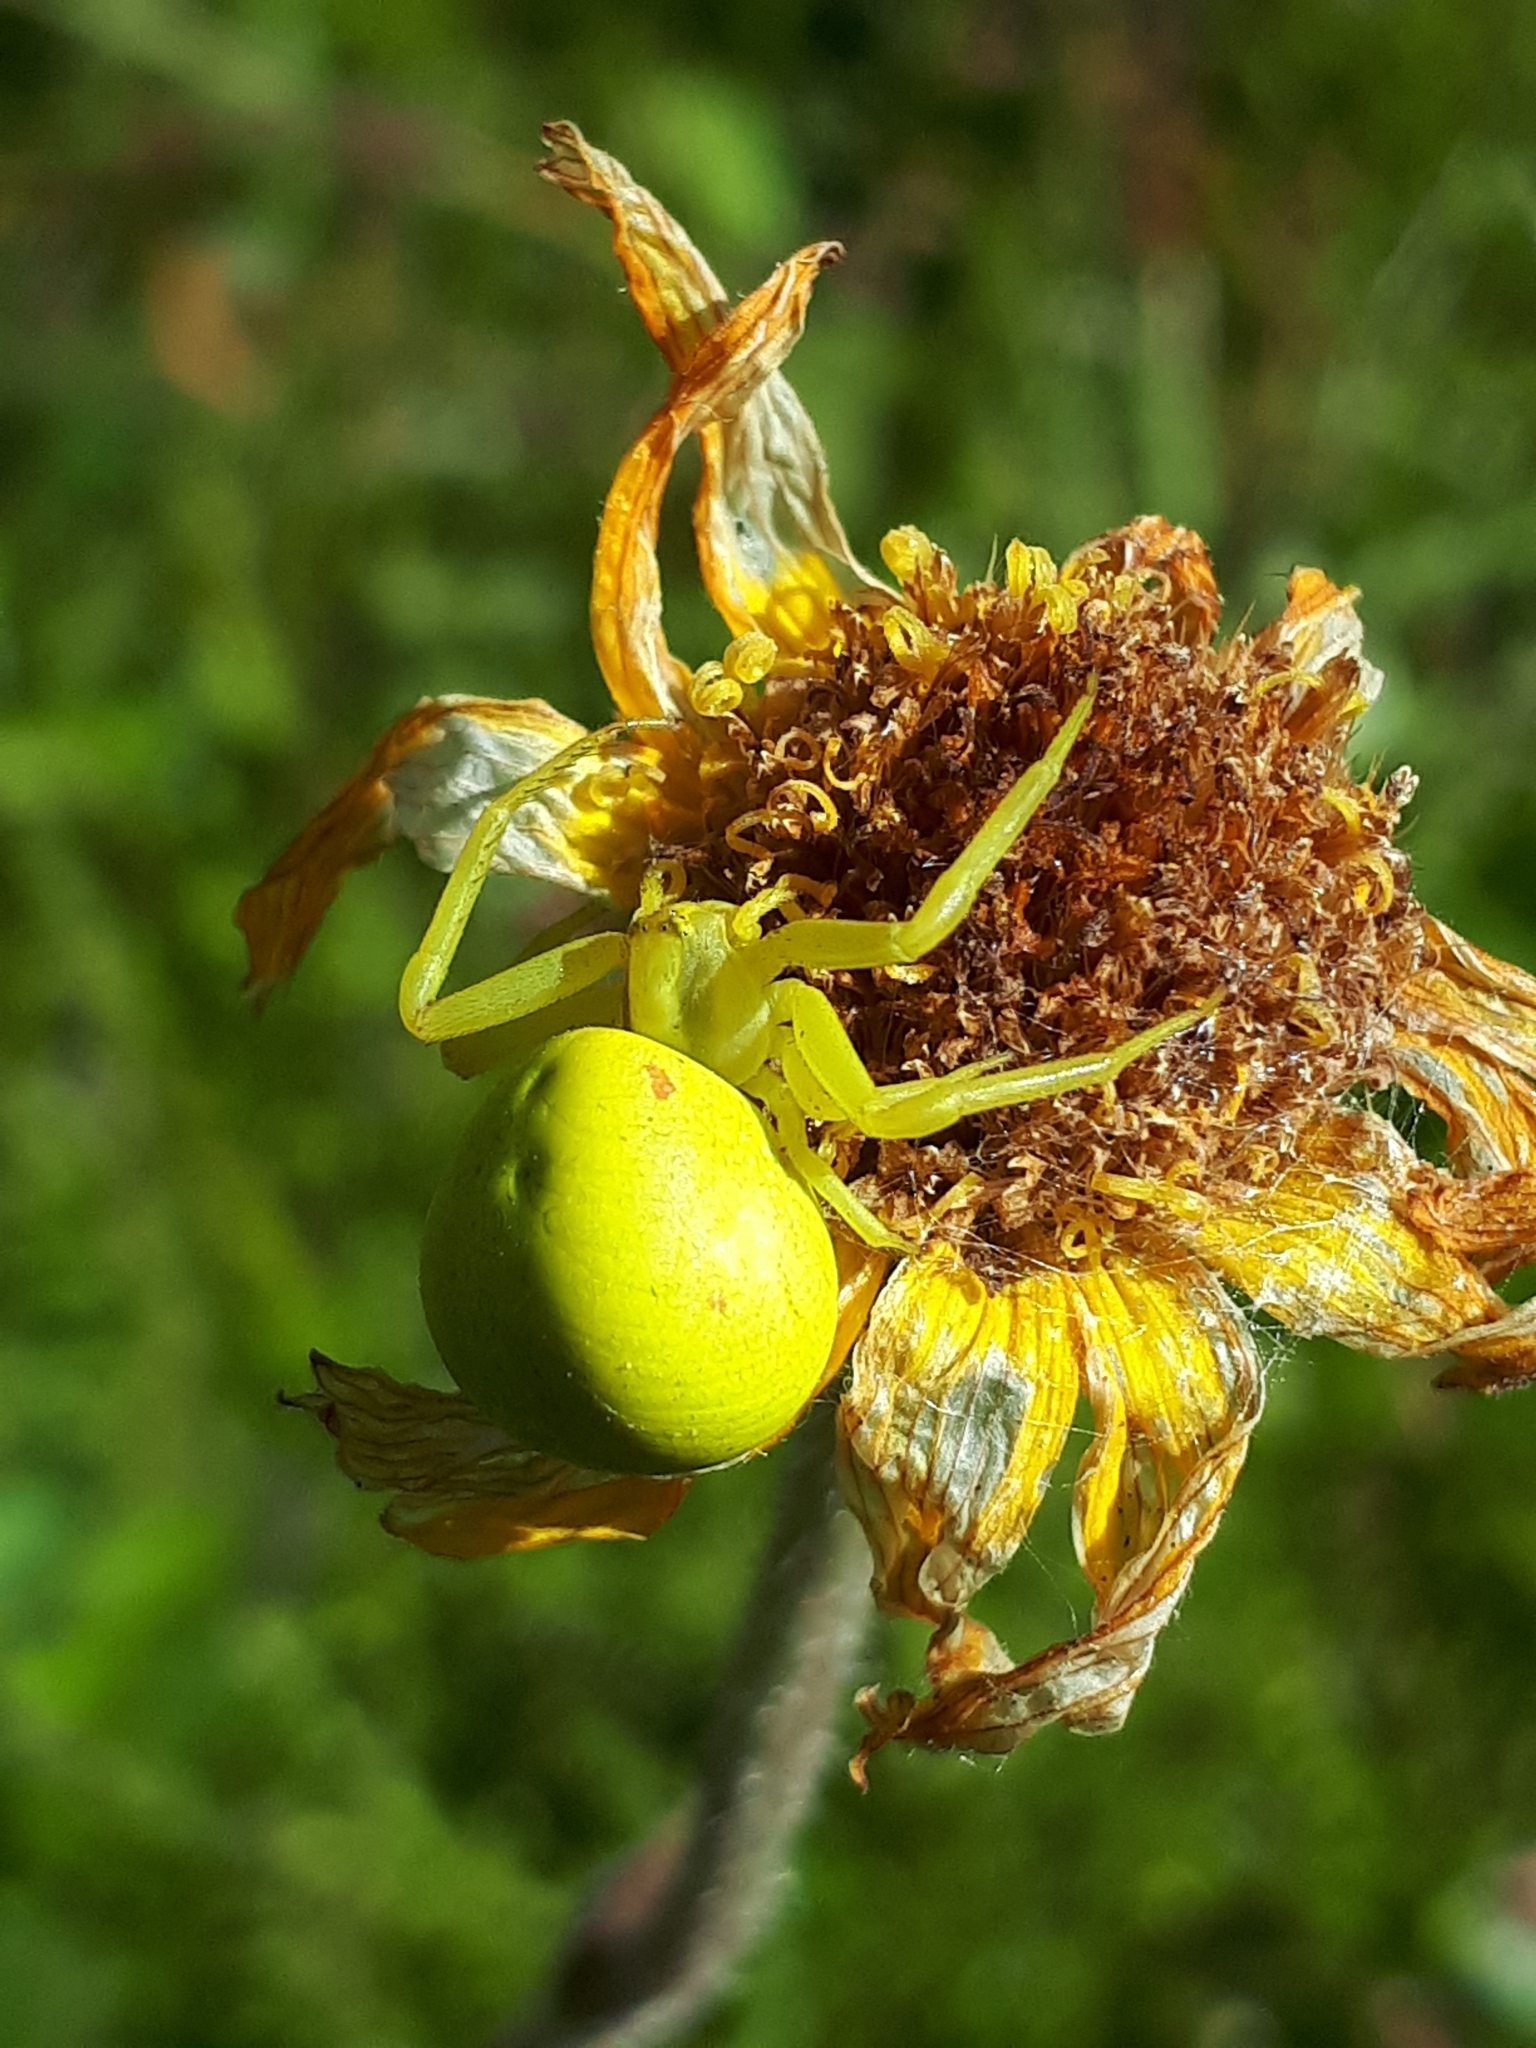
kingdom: Animalia
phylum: Arthropoda
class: Arachnida
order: Araneae
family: Thomisidae
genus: Misumena
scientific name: Misumena vatia
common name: Goldenrod crab spider
